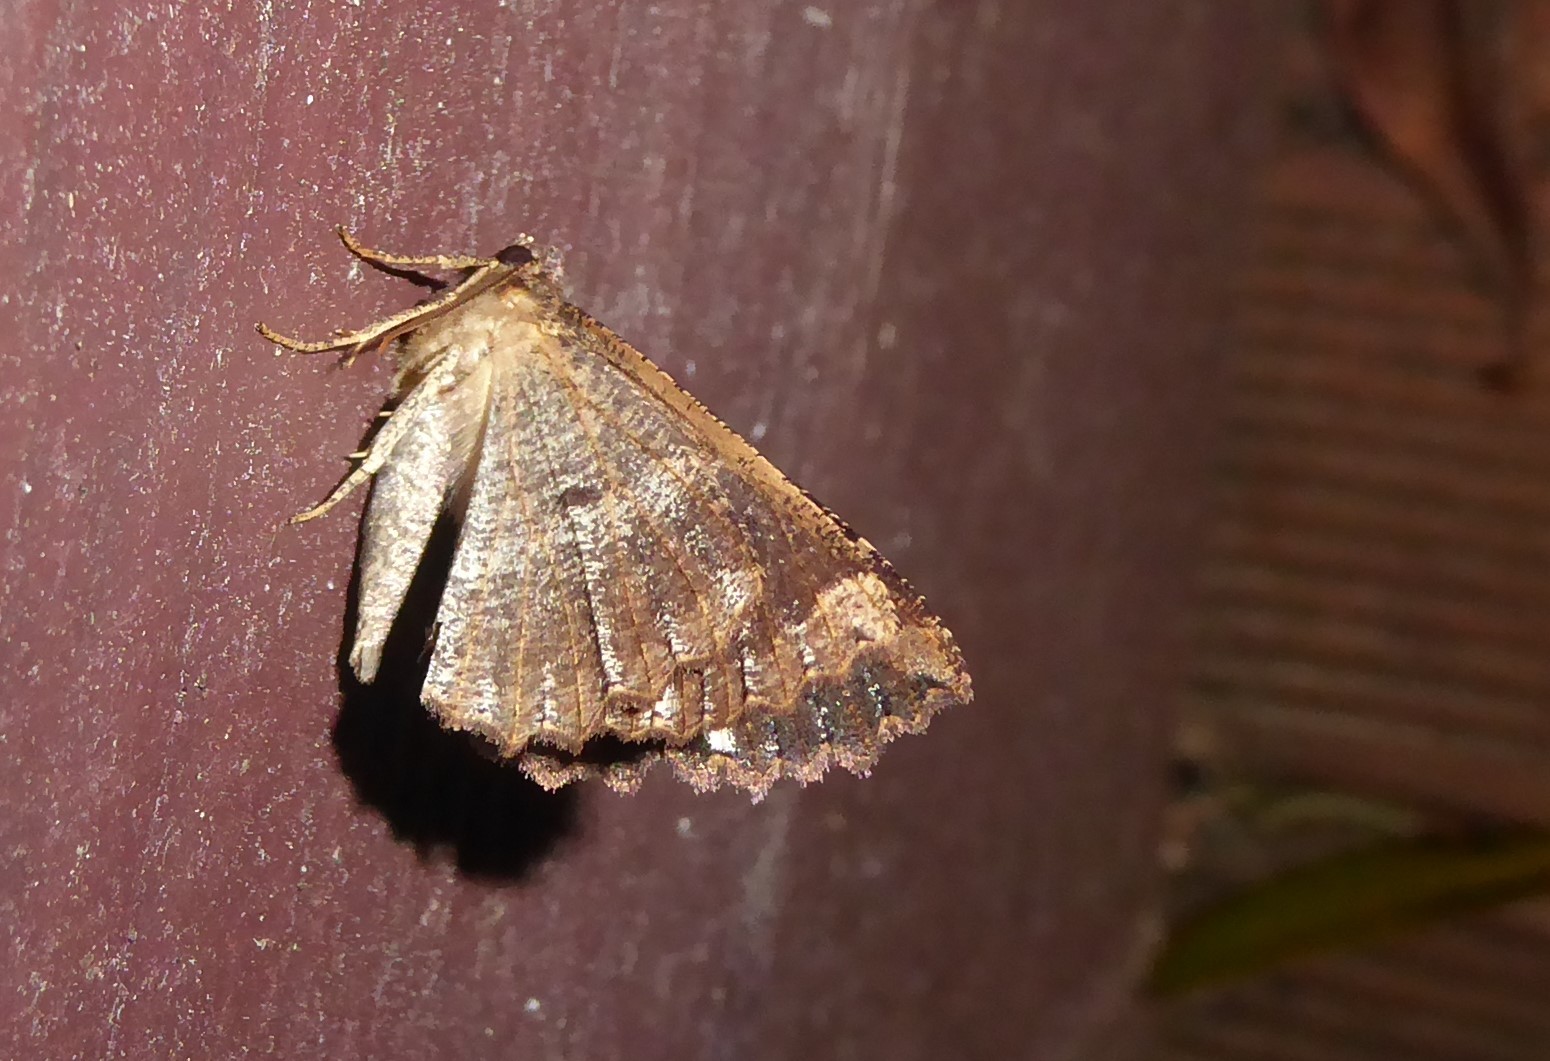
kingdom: Animalia
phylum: Arthropoda
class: Insecta
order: Lepidoptera
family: Geometridae
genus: Gellonia
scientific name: Gellonia dejectaria
